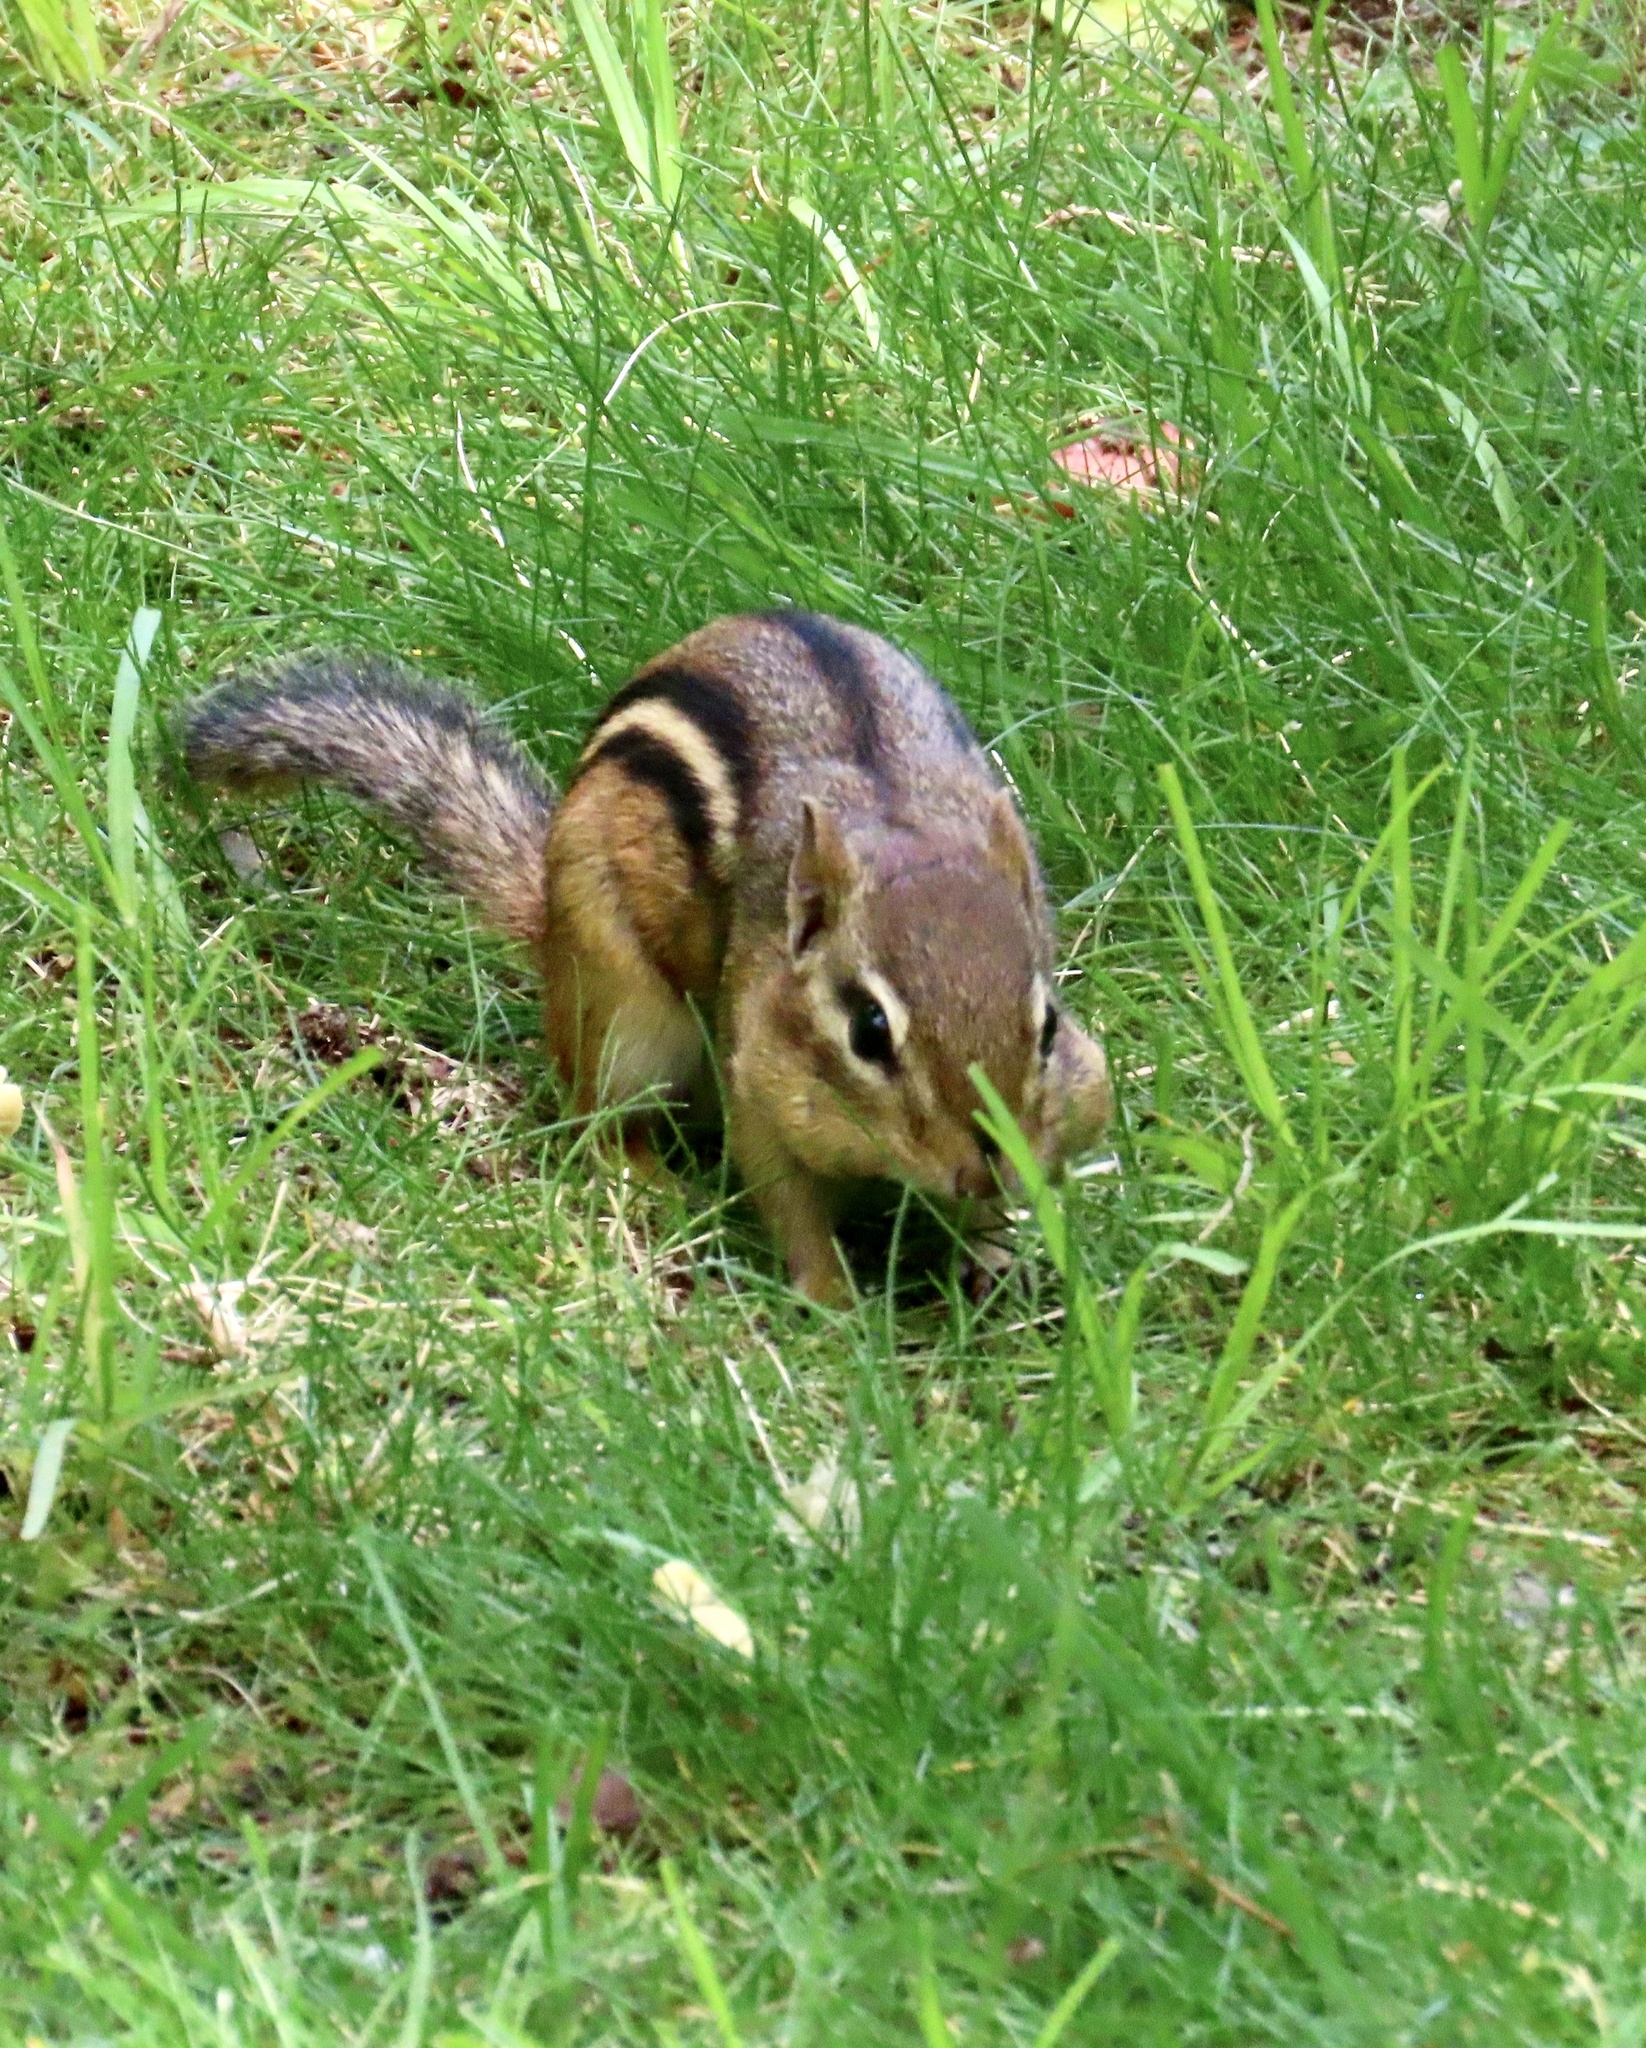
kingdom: Animalia
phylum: Chordata
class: Mammalia
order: Rodentia
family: Sciuridae
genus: Tamias
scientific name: Tamias striatus
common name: Eastern chipmunk
